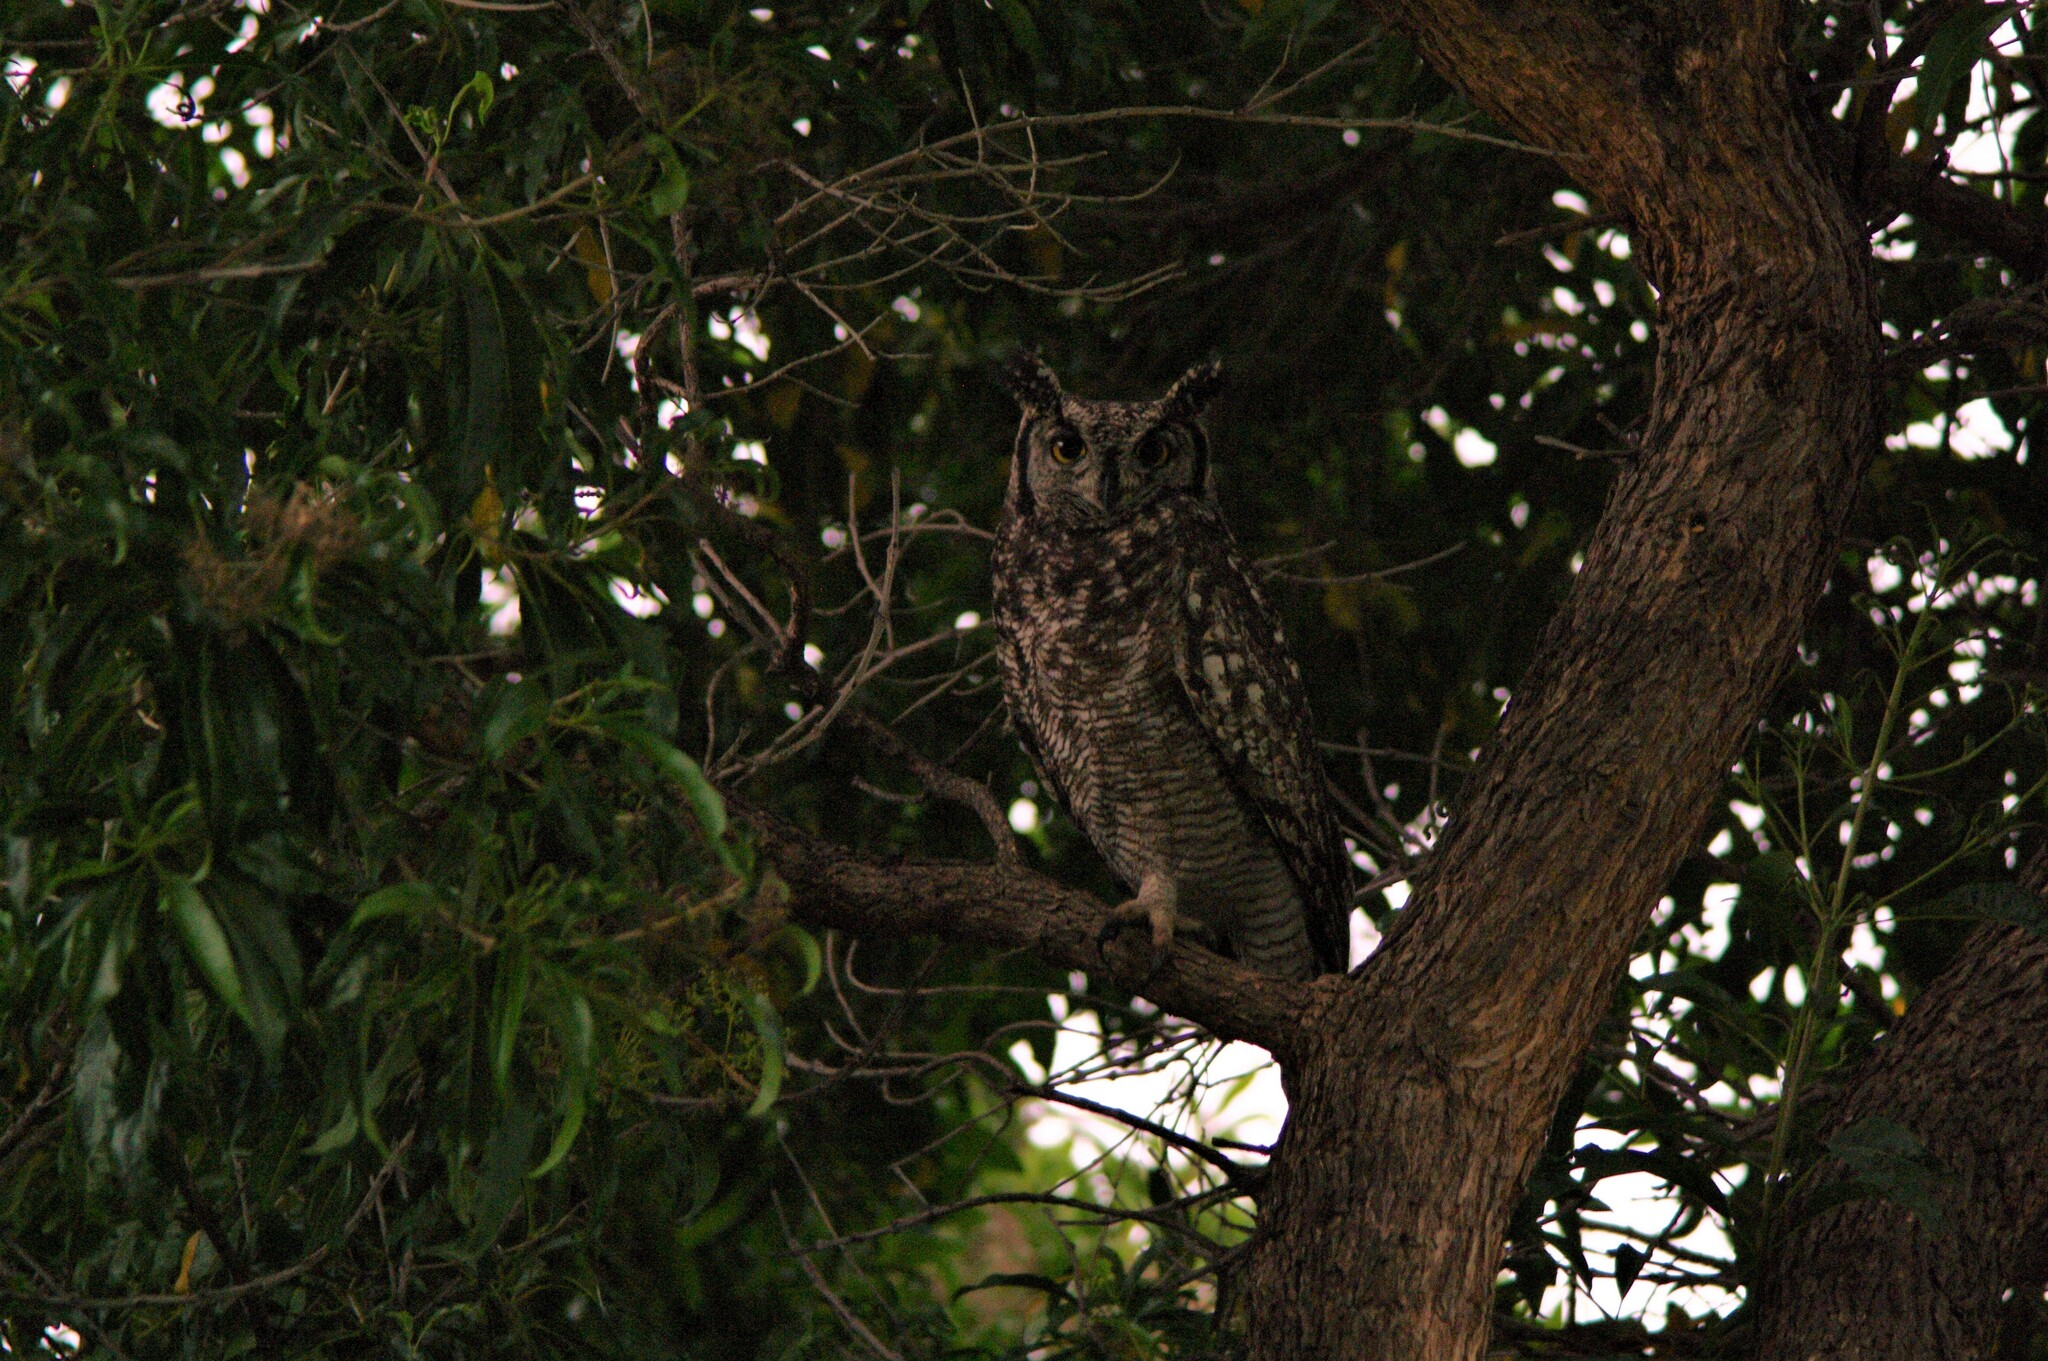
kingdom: Animalia
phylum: Chordata
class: Aves
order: Strigiformes
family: Strigidae
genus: Bubo
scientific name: Bubo africanus
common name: Spotted eagle-owl
